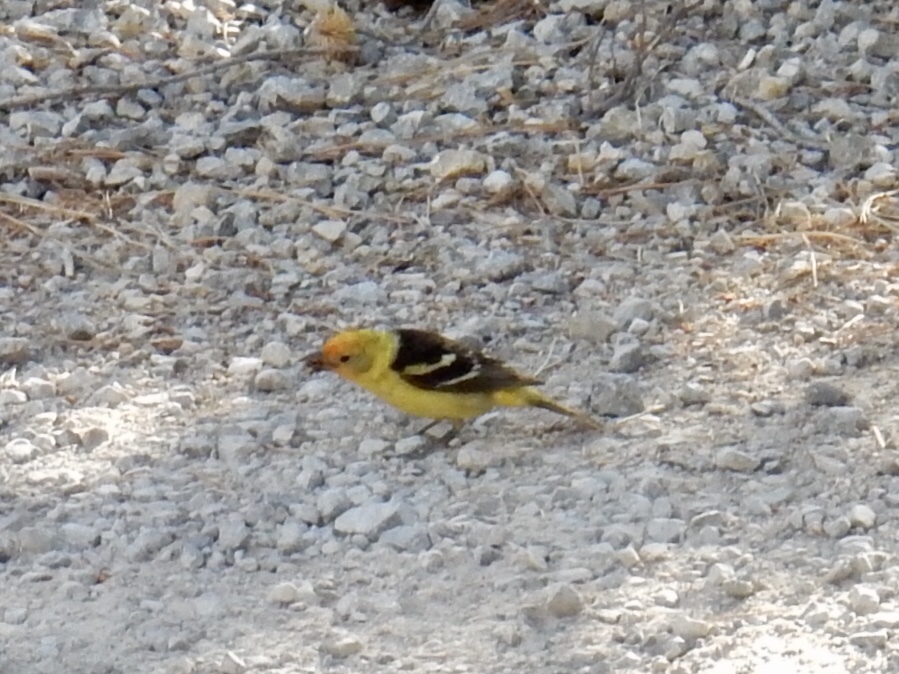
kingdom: Animalia
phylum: Chordata
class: Aves
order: Passeriformes
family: Cardinalidae
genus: Piranga
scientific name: Piranga ludoviciana
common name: Western tanager
